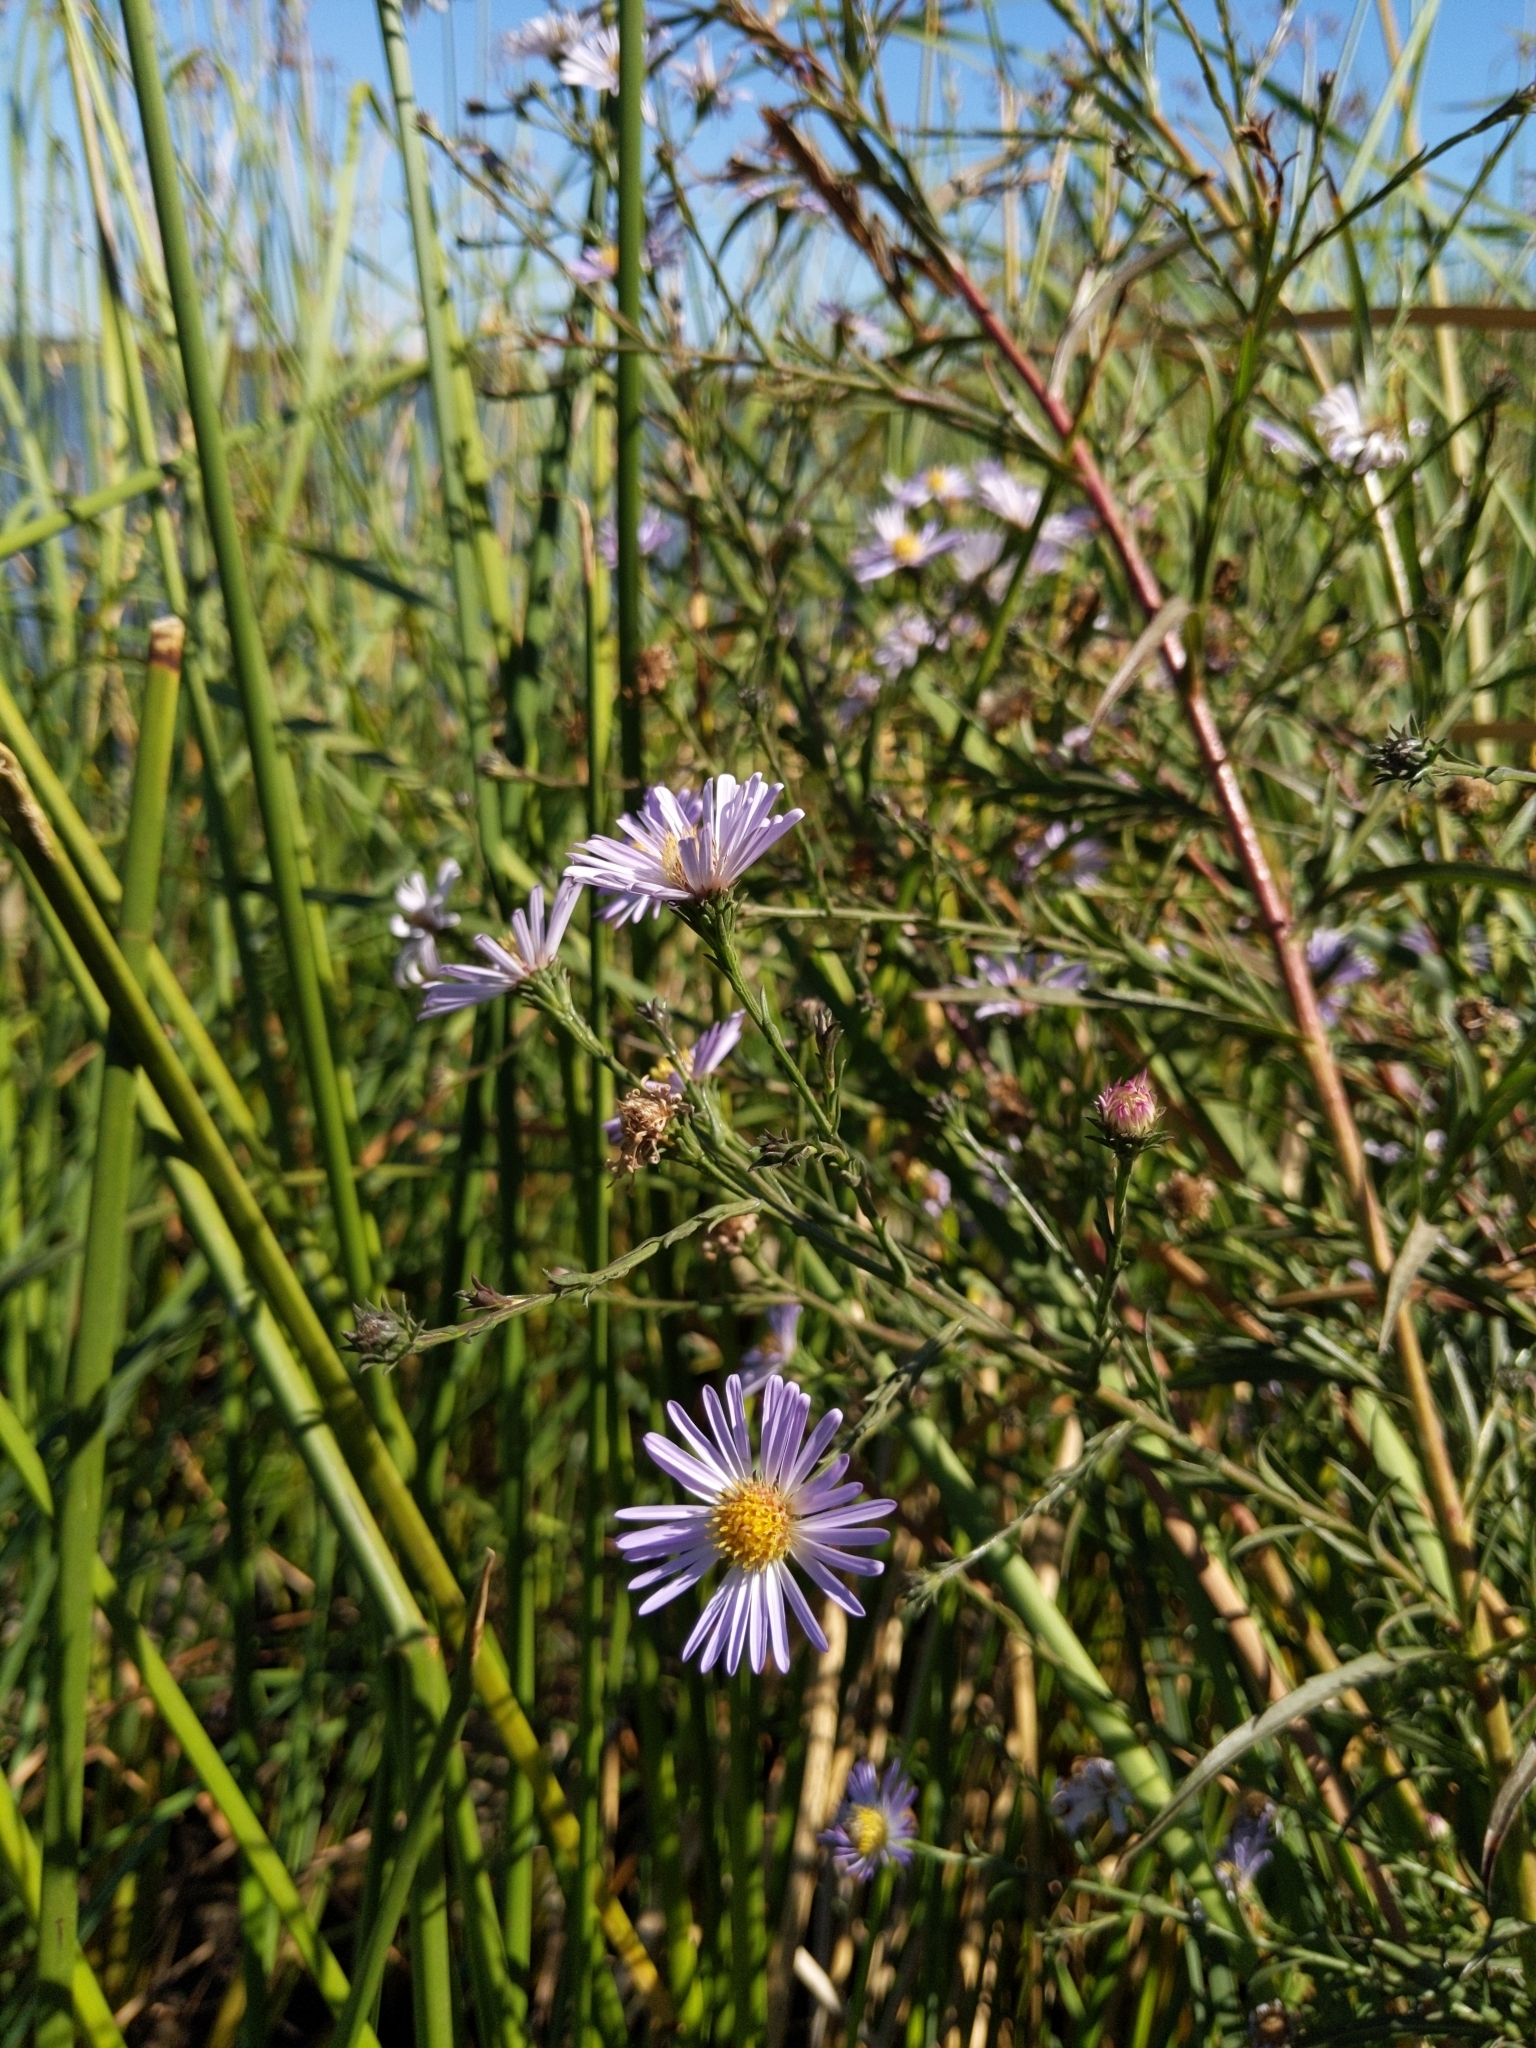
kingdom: Plantae
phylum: Tracheophyta
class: Magnoliopsida
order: Asterales
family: Asteraceae
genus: Symphyotrichum
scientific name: Symphyotrichum lentum
